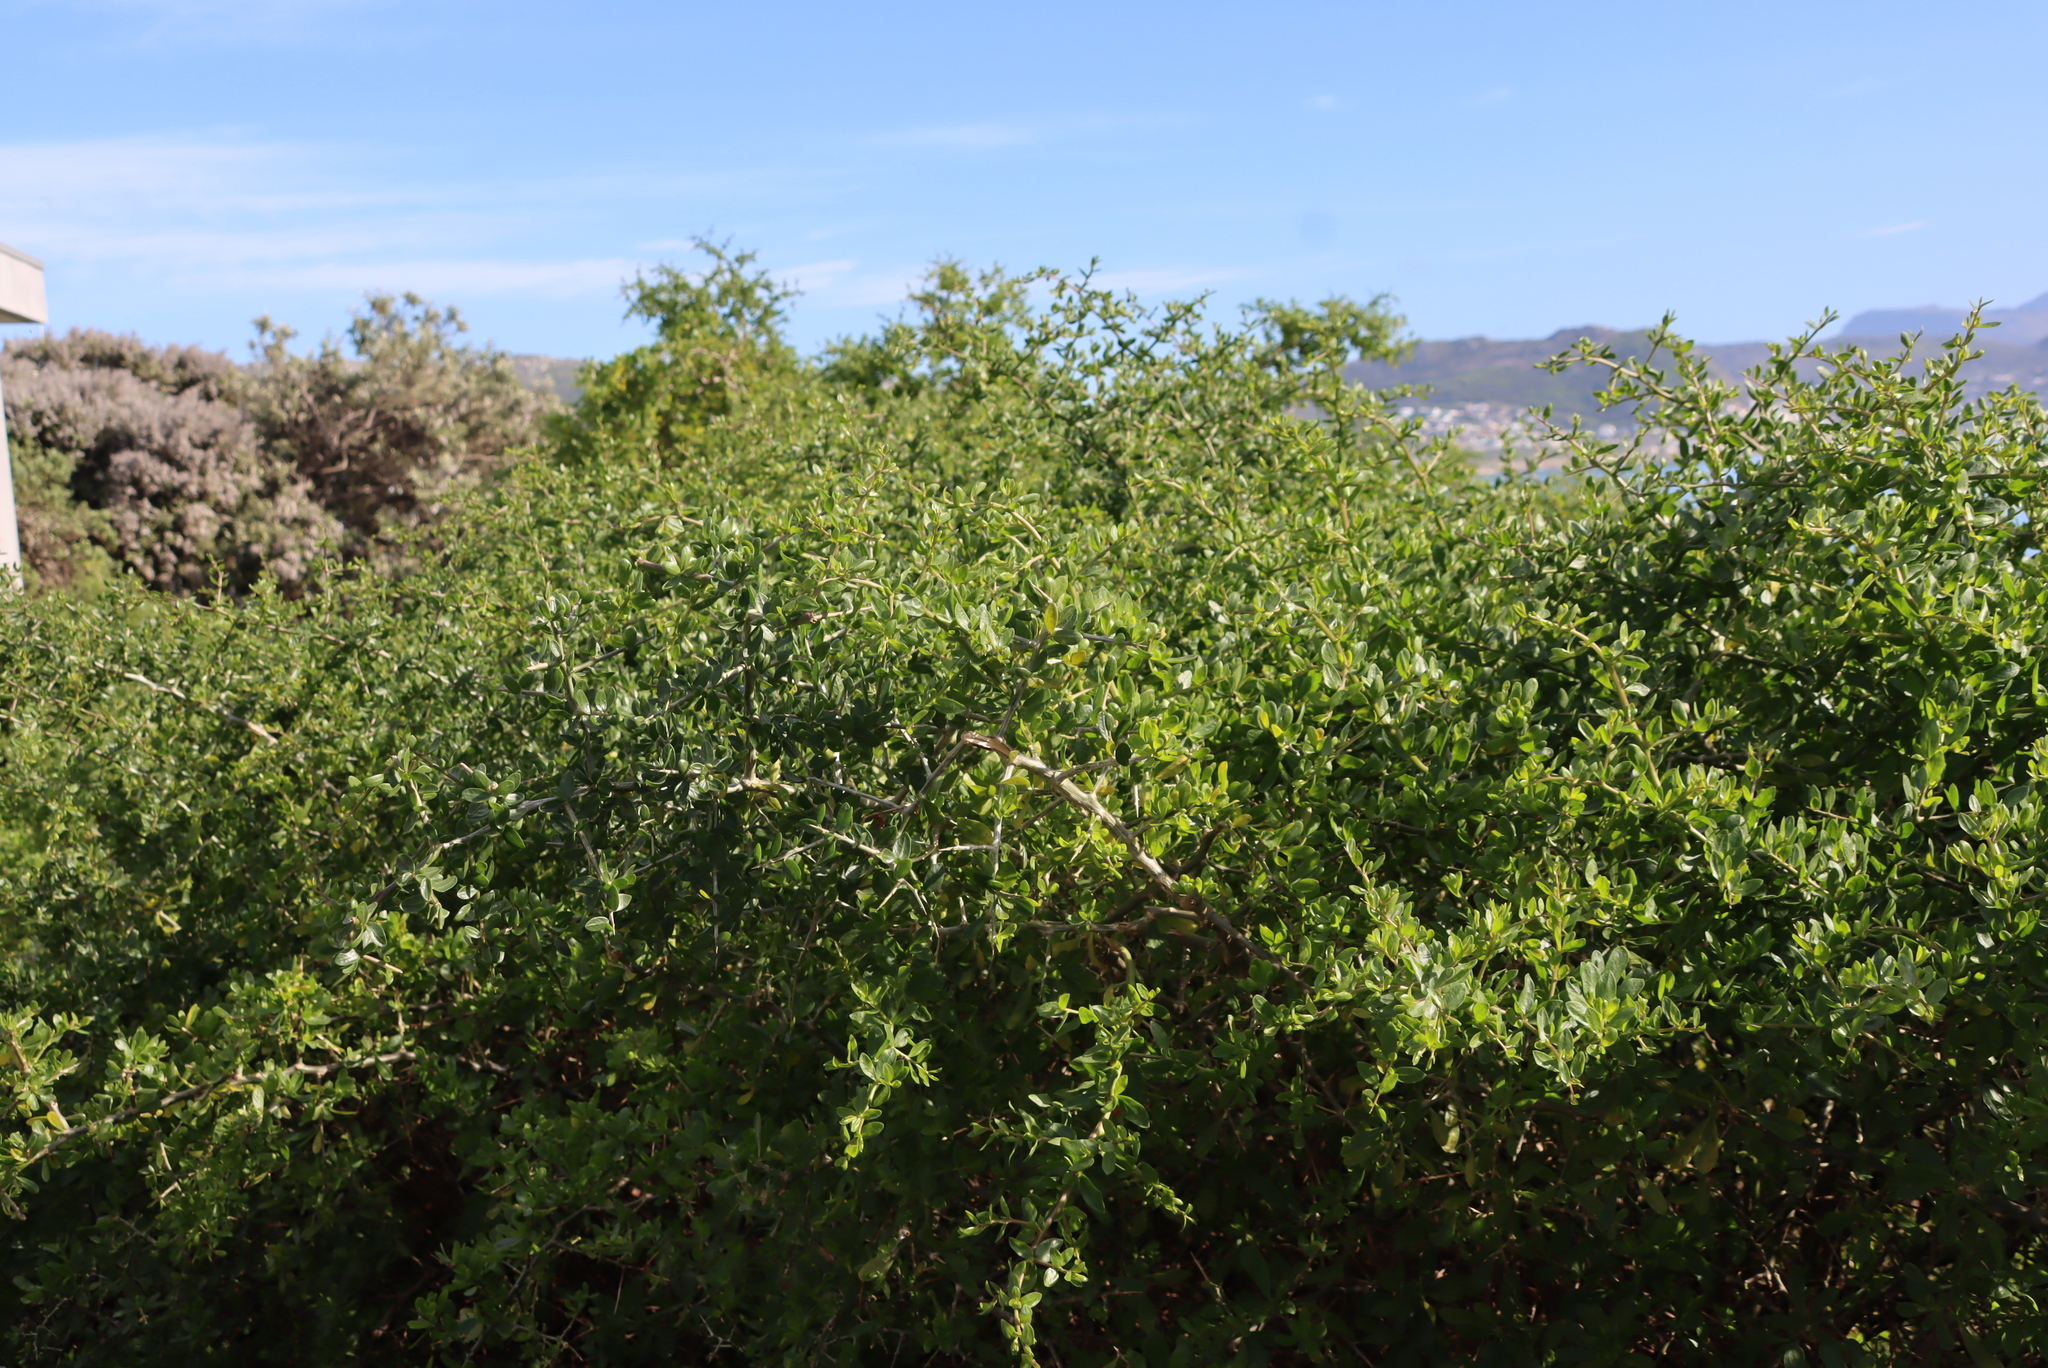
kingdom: Plantae
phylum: Tracheophyta
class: Magnoliopsida
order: Solanales
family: Solanaceae
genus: Lycium
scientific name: Lycium ferocissimum
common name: African boxthorn
